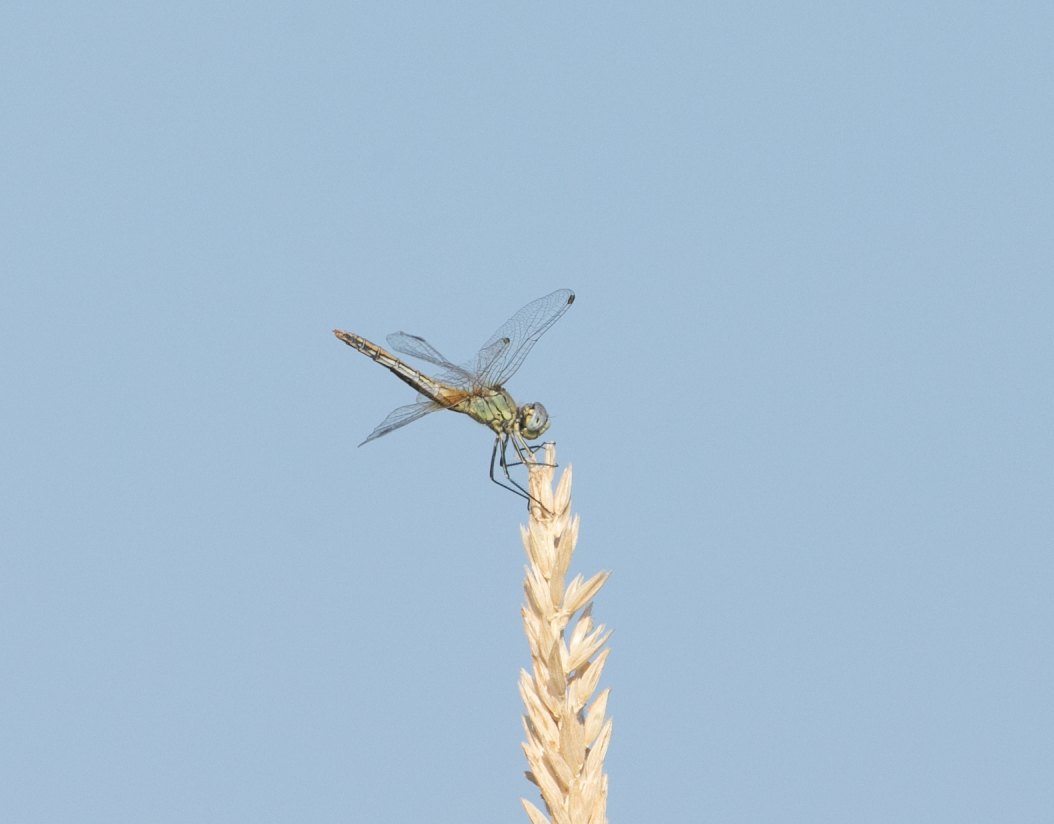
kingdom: Animalia
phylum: Arthropoda
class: Insecta
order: Odonata
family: Libellulidae
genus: Sympetrum
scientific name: Sympetrum fonscolombii
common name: Red-veined darter
